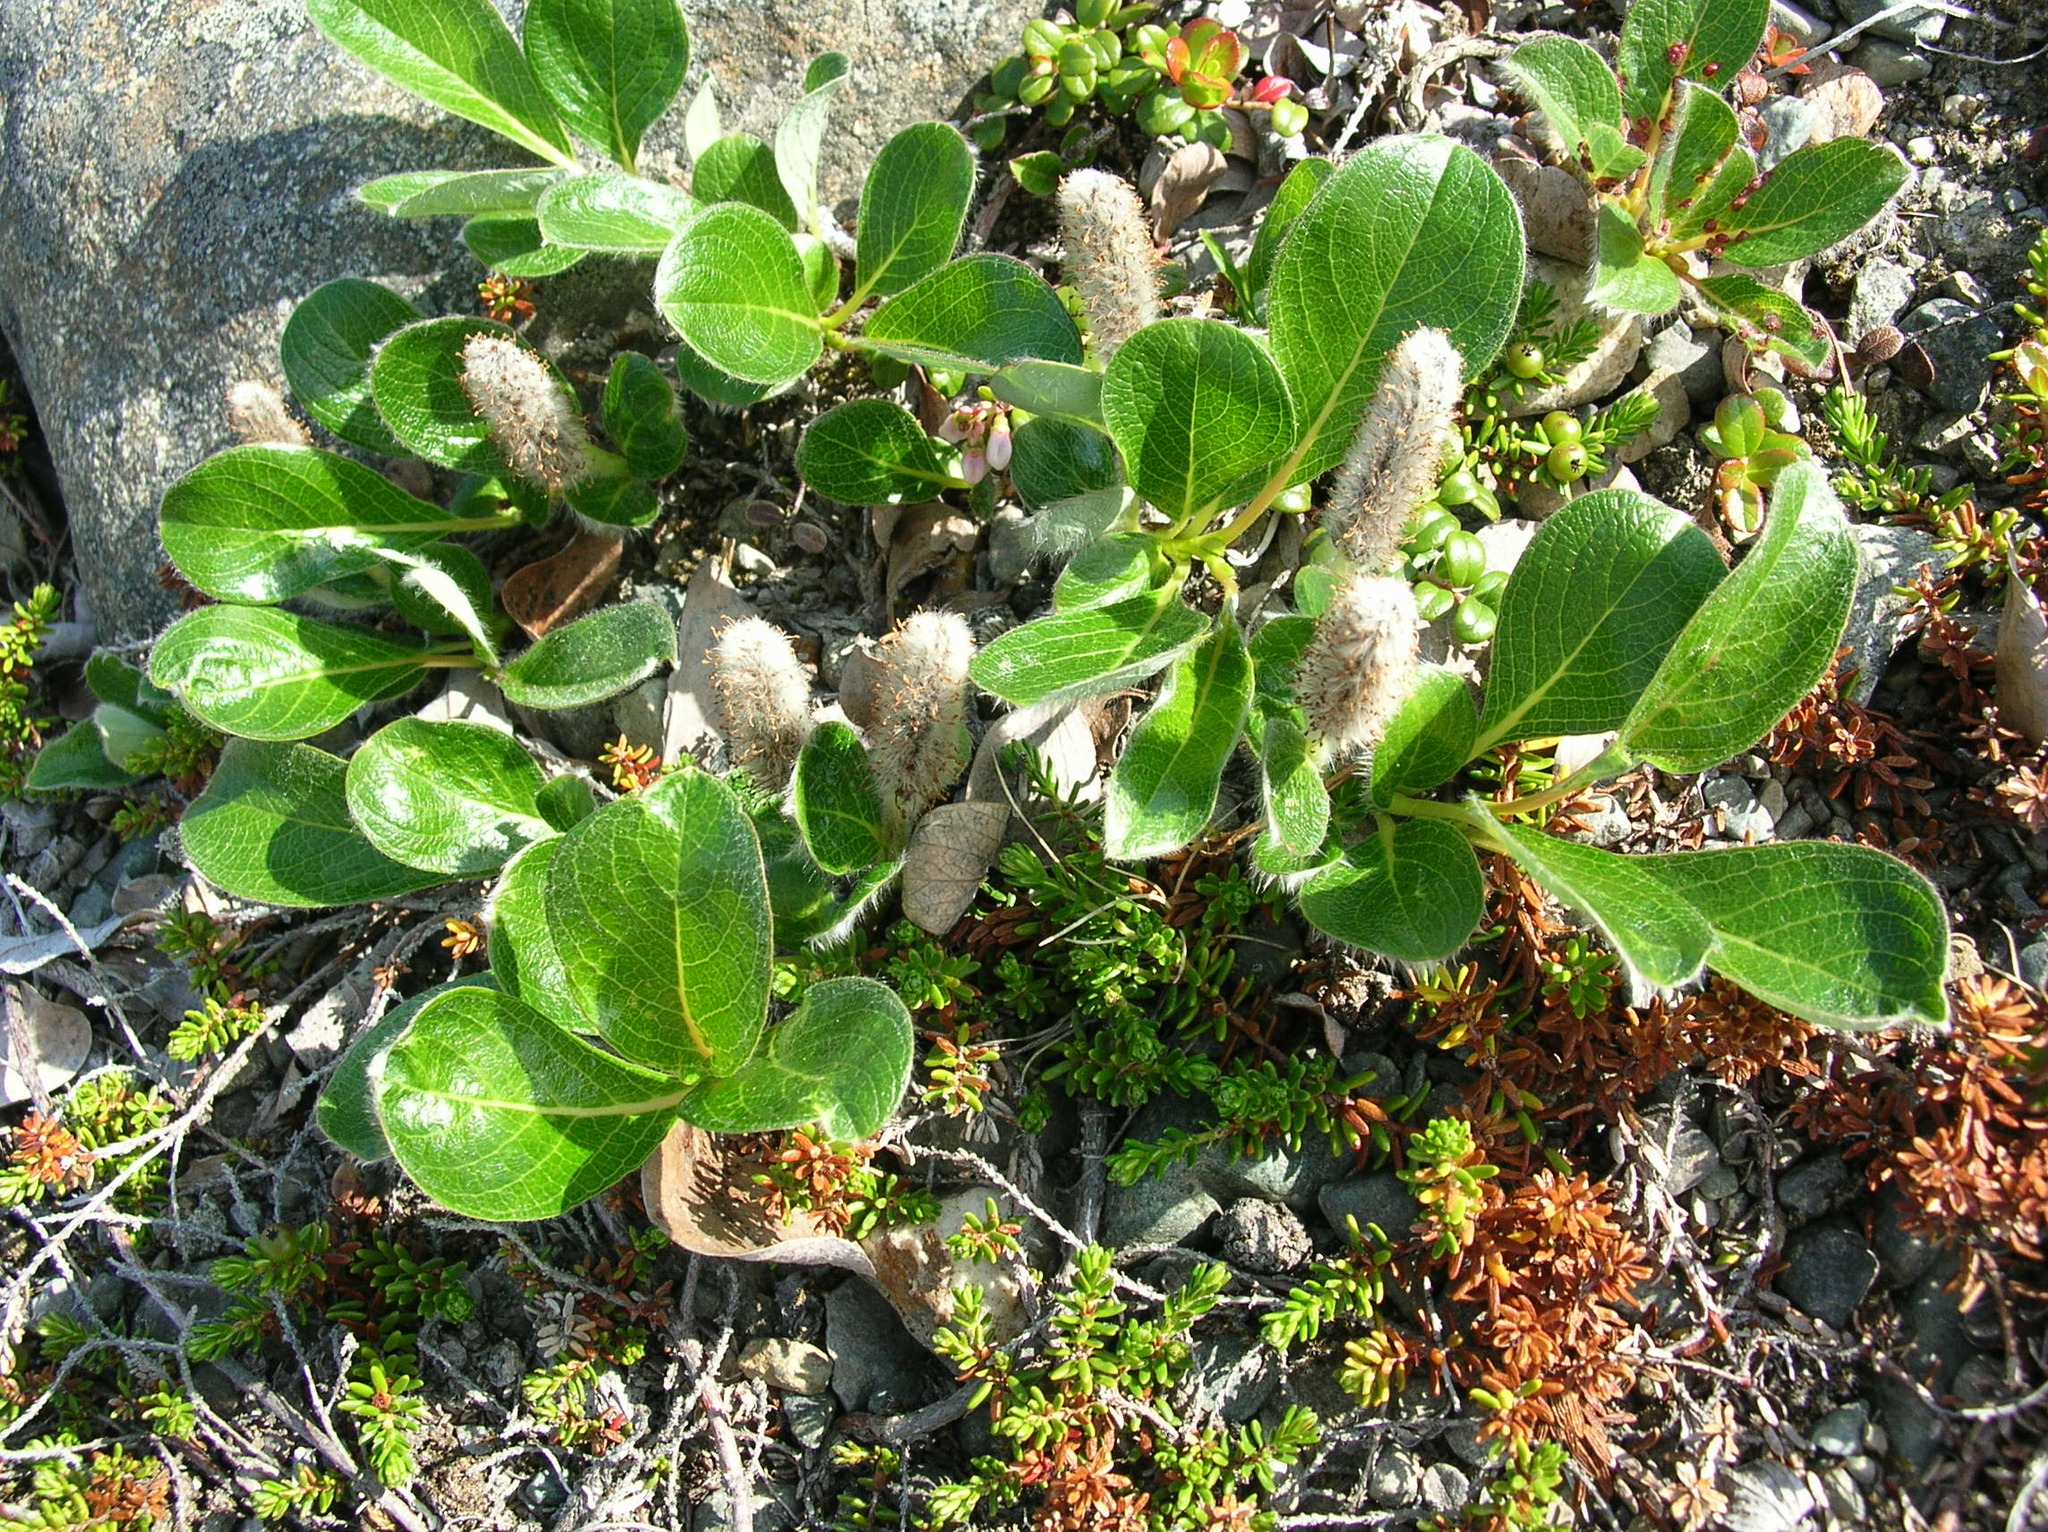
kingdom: Plantae
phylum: Tracheophyta
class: Magnoliopsida
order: Malpighiales
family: Salicaceae
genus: Salix
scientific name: Salix arctica
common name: Arctic willow
